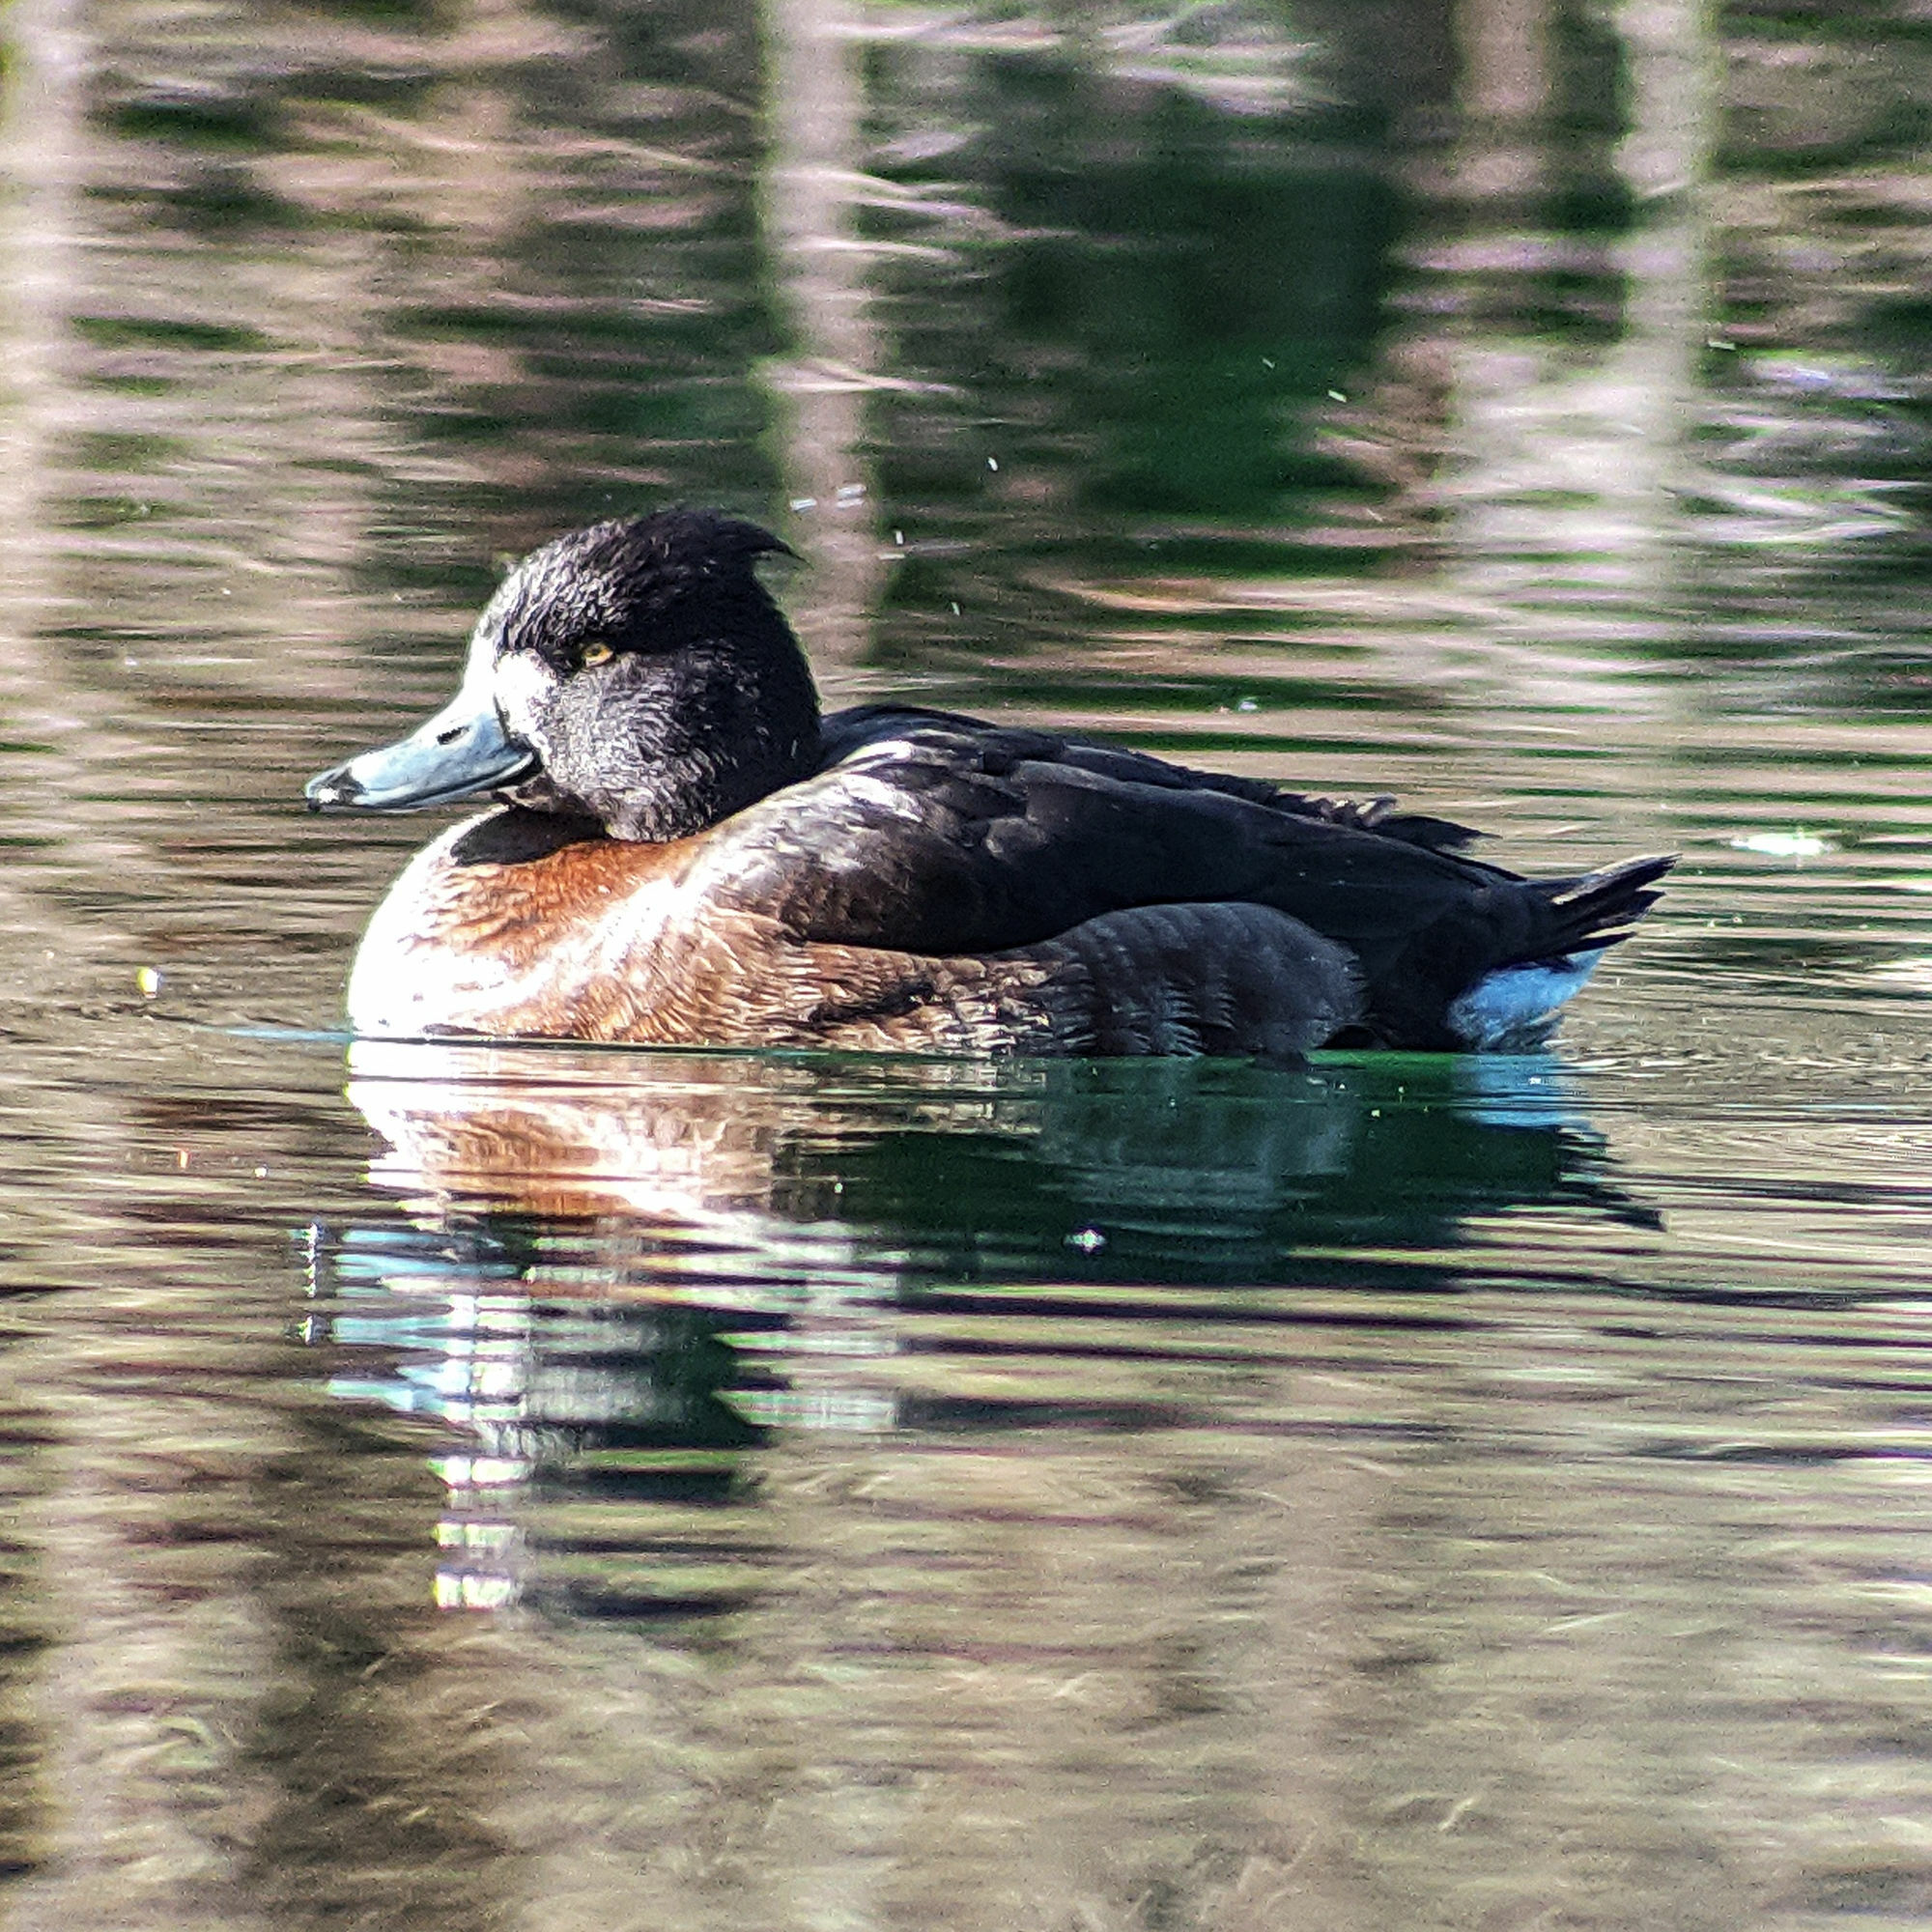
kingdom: Animalia
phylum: Chordata
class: Aves
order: Anseriformes
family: Anatidae
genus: Aythya
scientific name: Aythya fuligula
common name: Tufted duck
